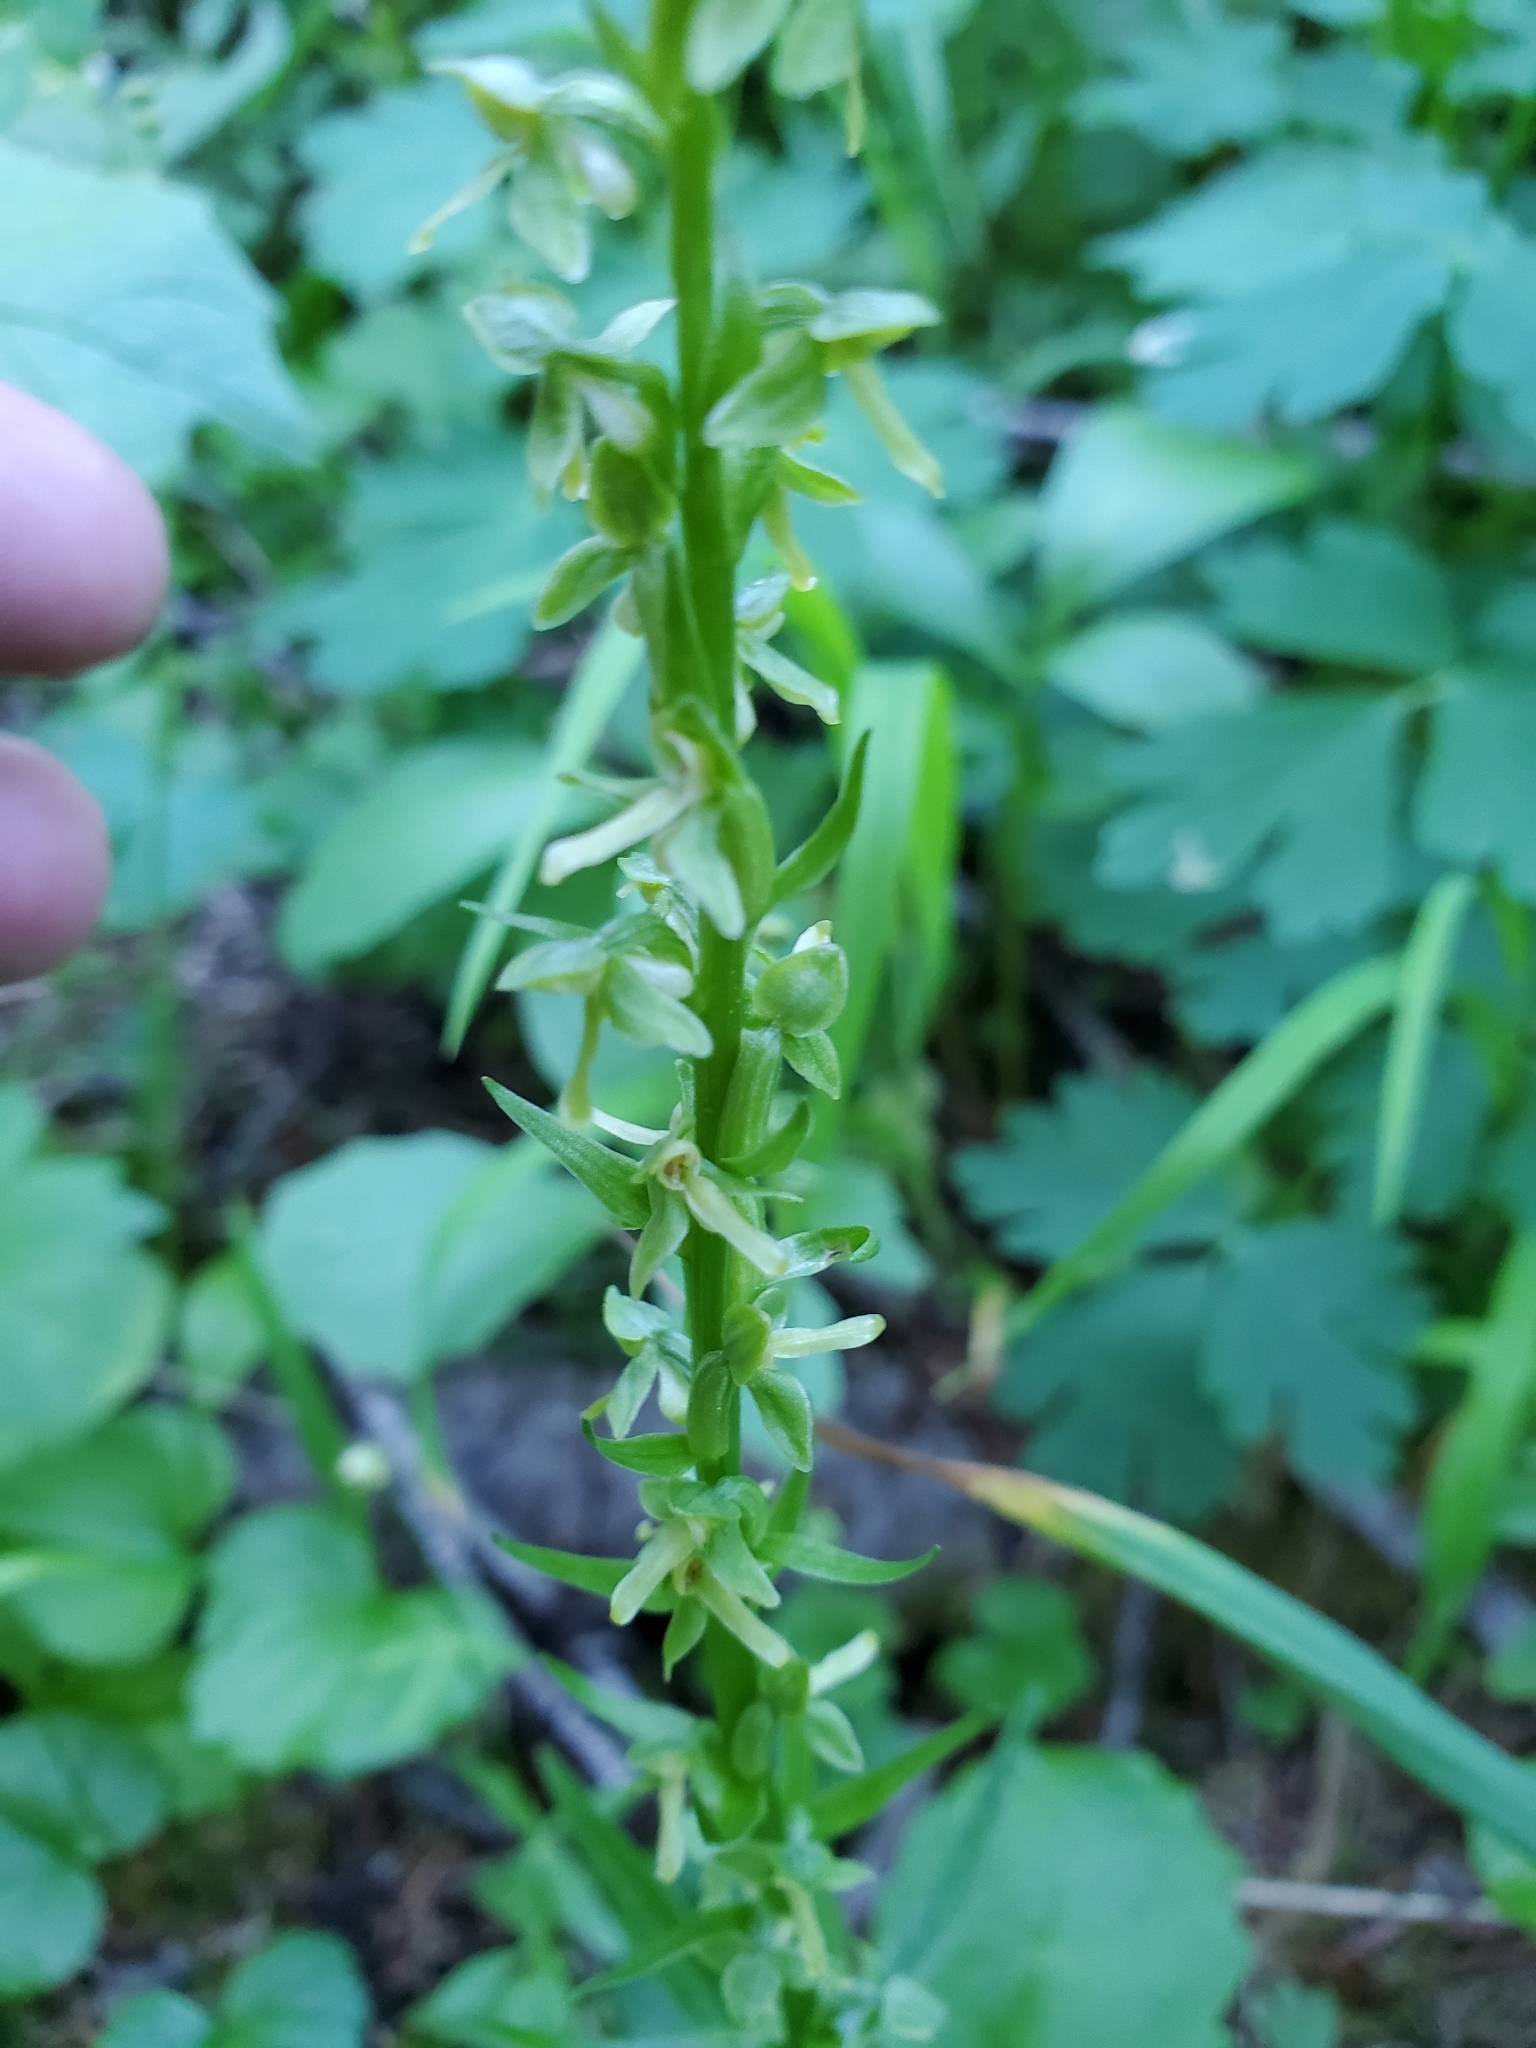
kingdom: Plantae
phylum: Tracheophyta
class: Liliopsida
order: Asparagales
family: Orchidaceae
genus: Platanthera
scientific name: Platanthera stricta
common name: Slender bog orchid
